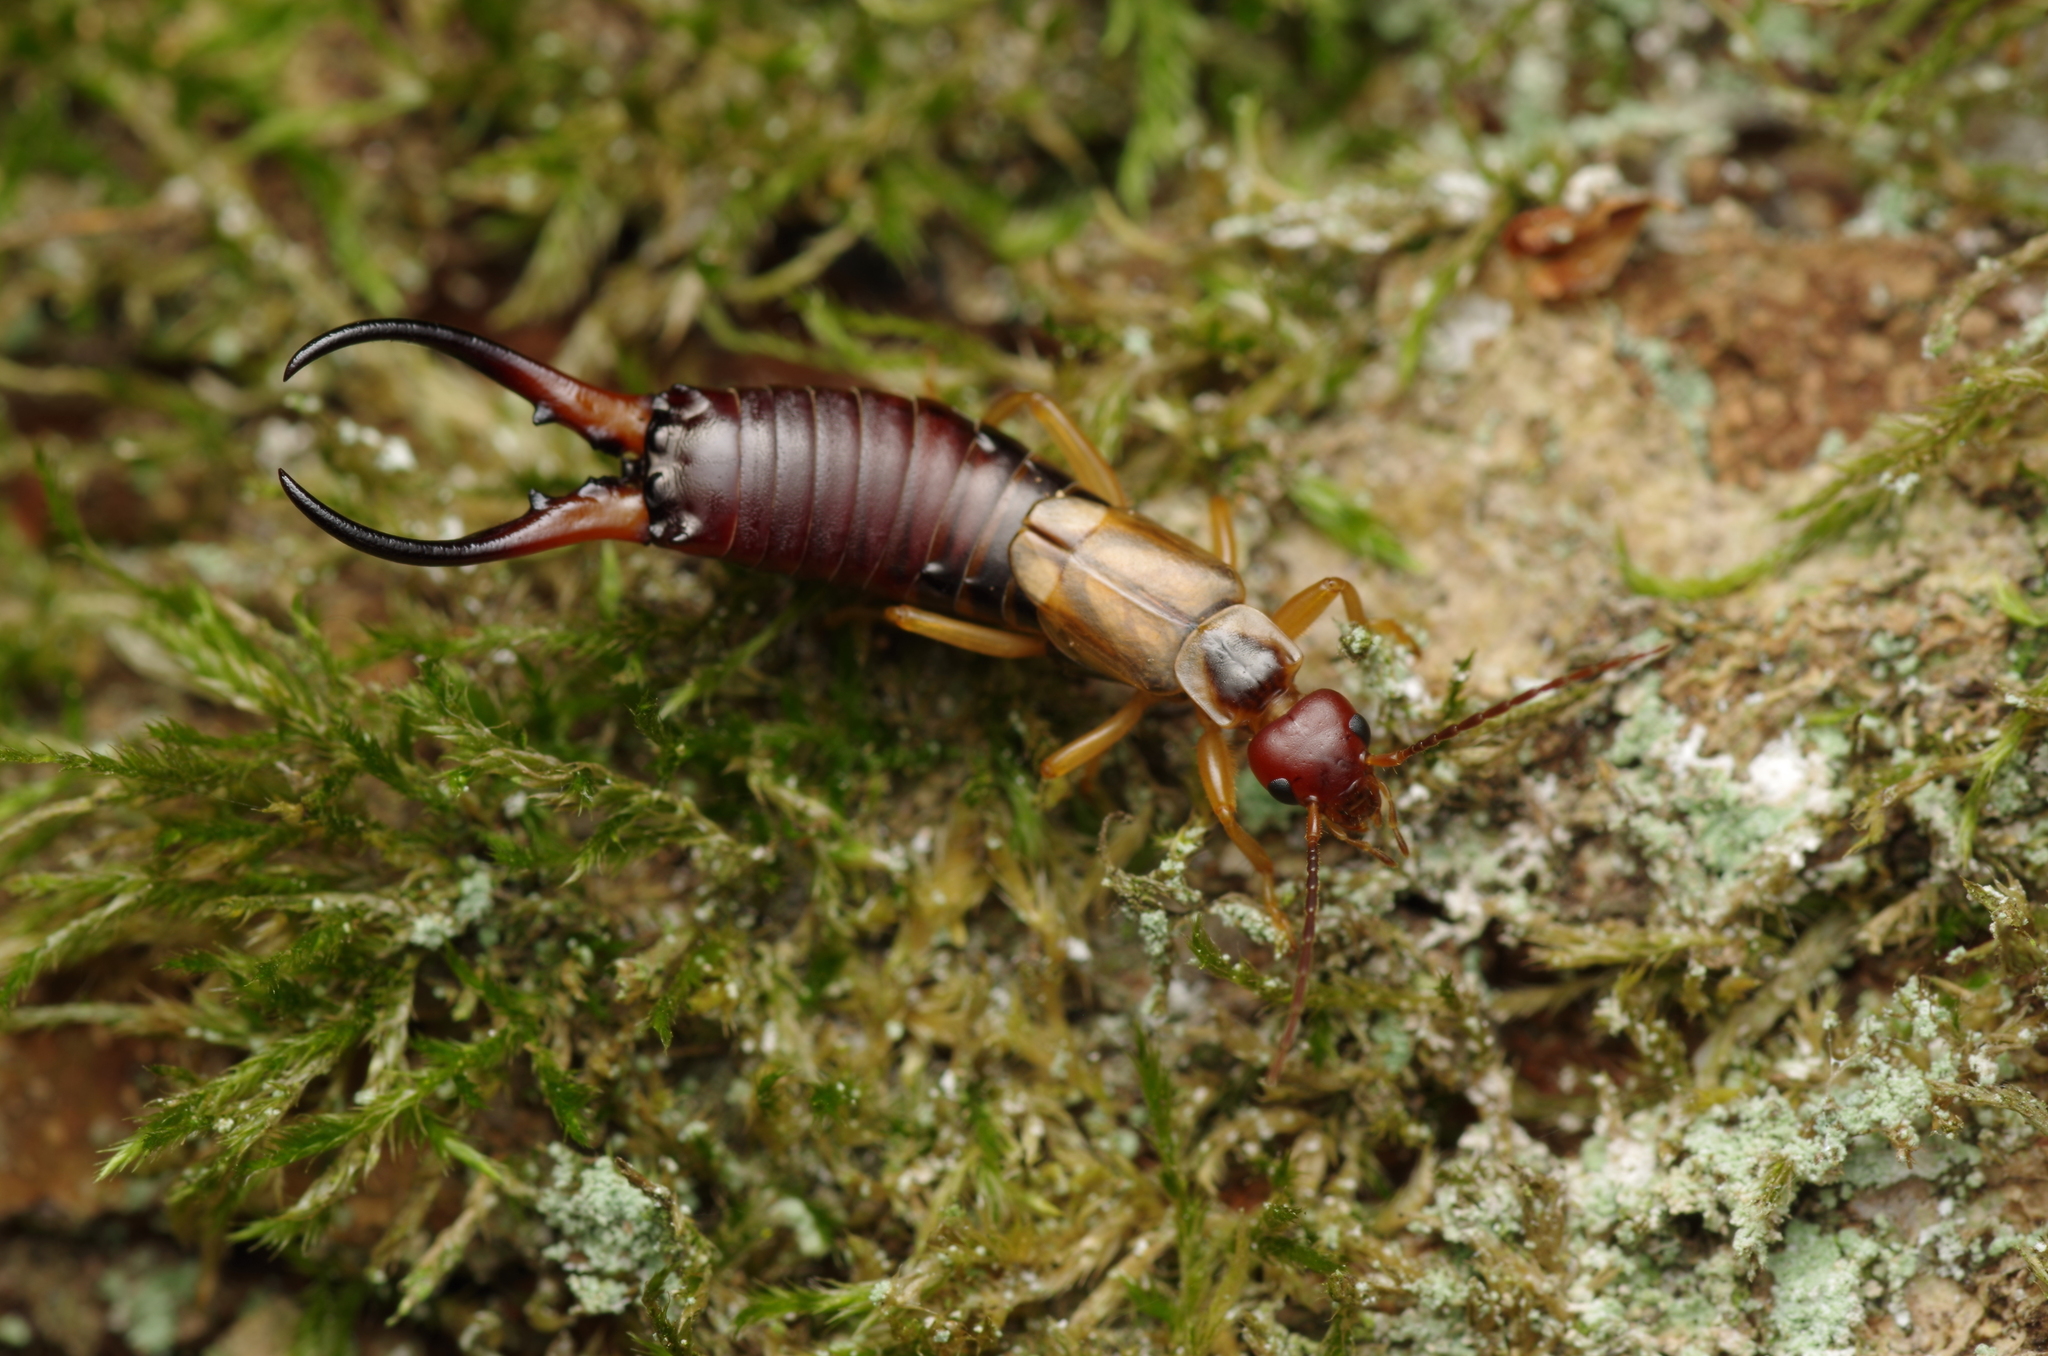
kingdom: Animalia
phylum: Arthropoda
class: Insecta
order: Dermaptera
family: Forficulidae
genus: Forficula
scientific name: Forficula
